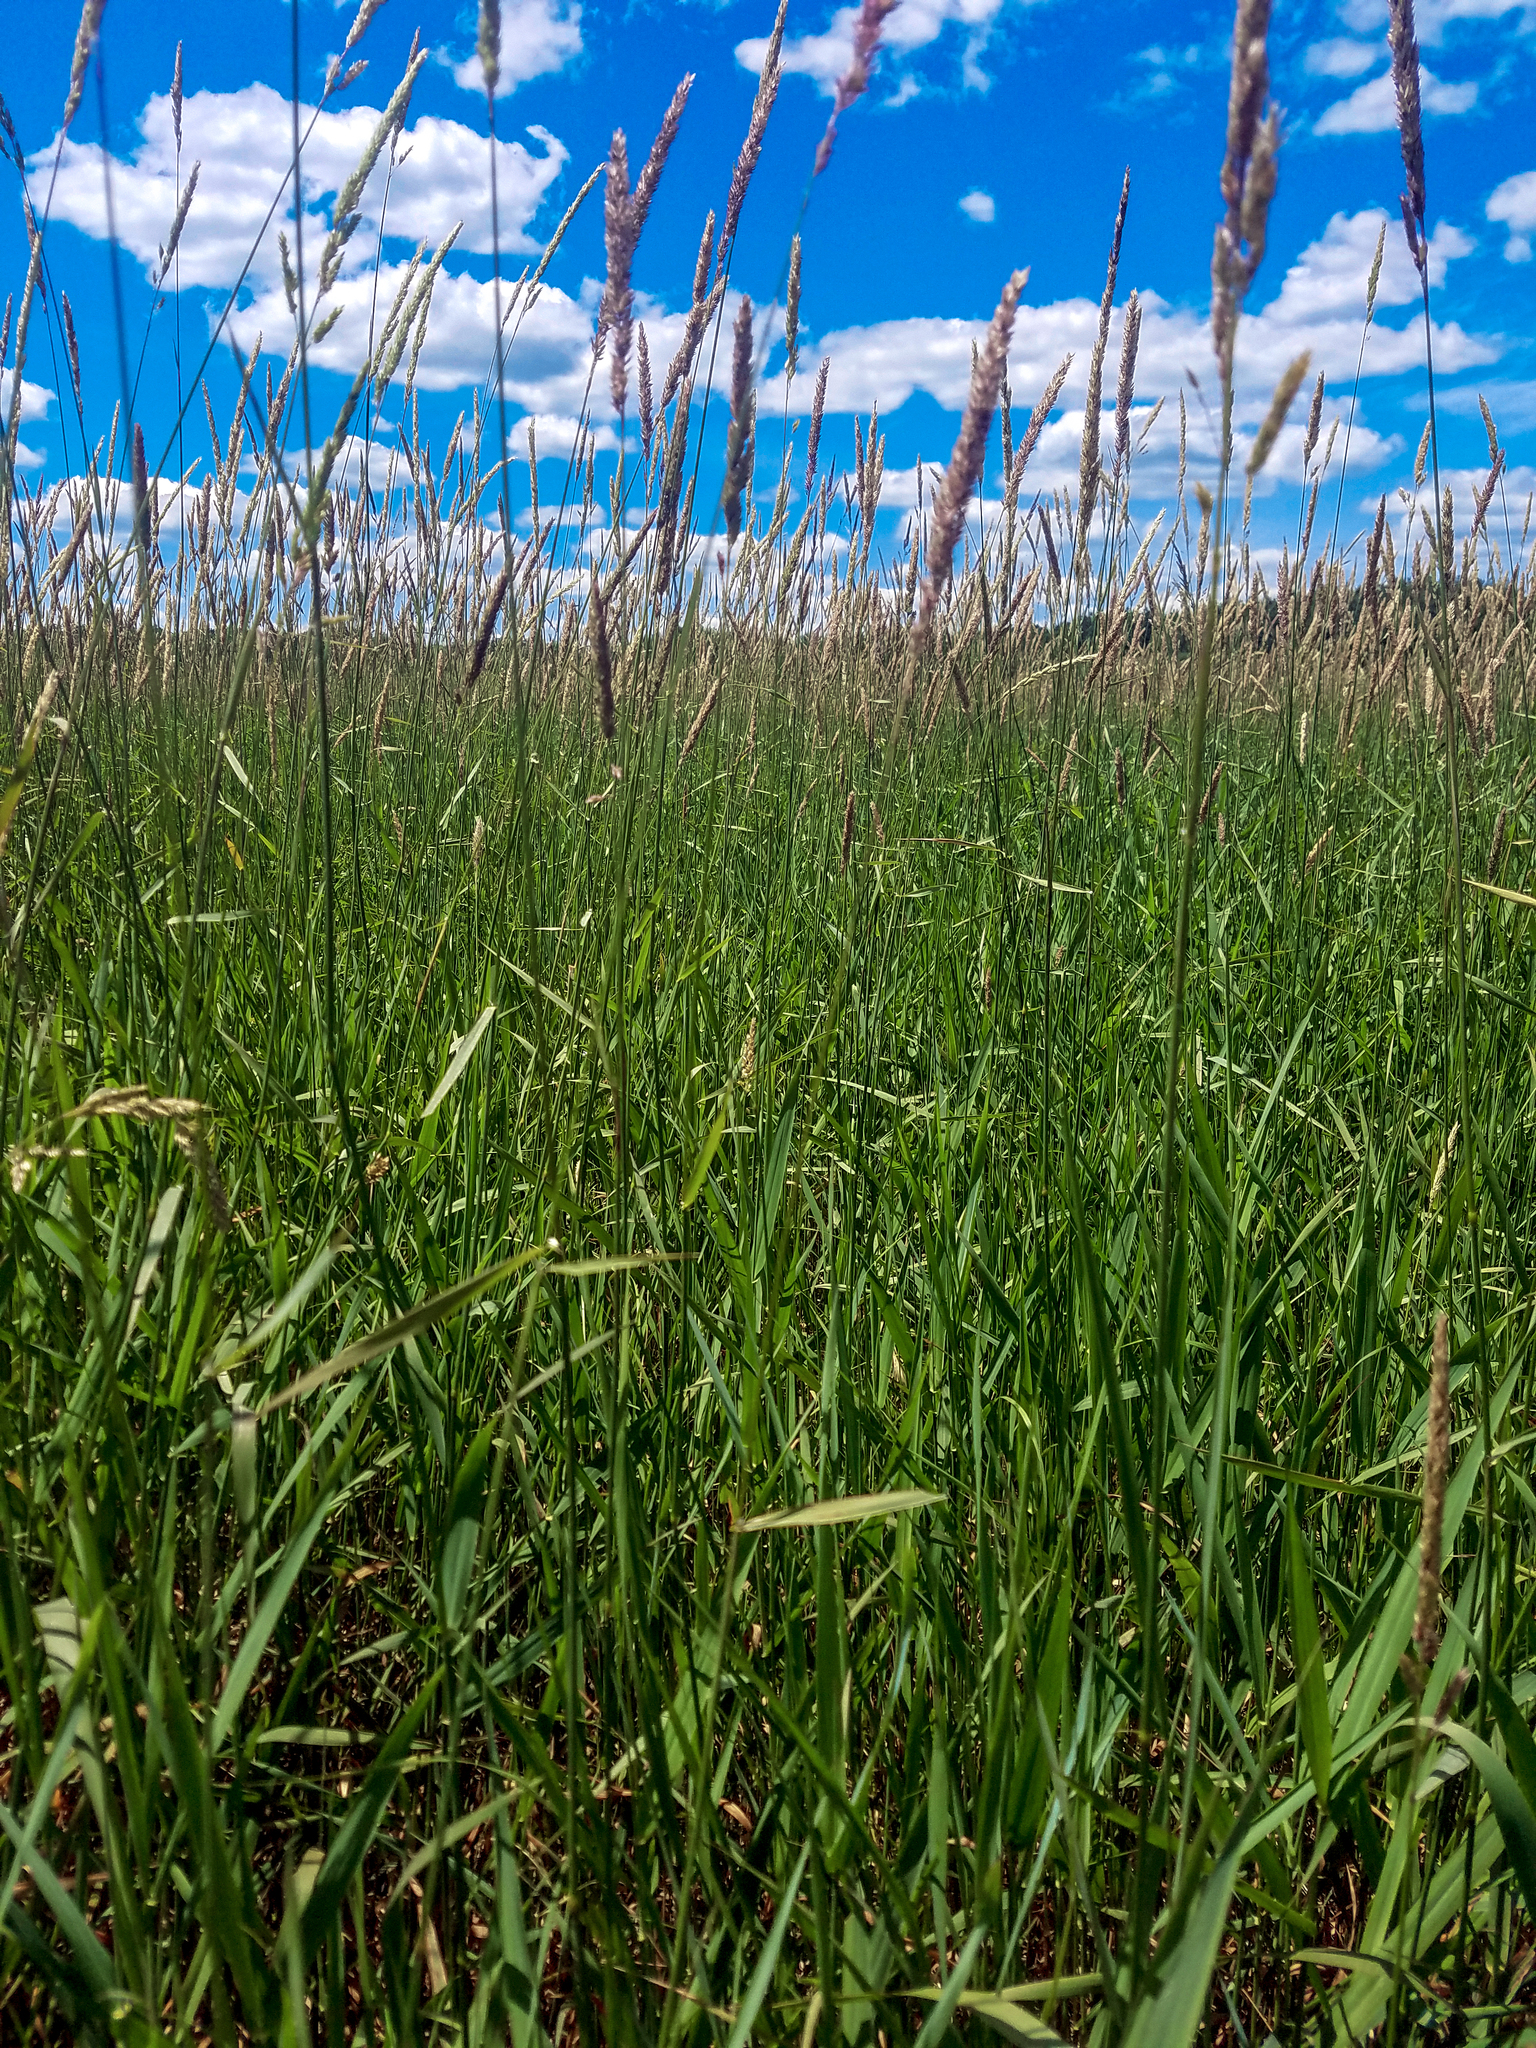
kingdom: Plantae
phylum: Tracheophyta
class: Liliopsida
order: Poales
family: Poaceae
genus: Phalaris
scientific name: Phalaris arundinacea
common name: Reed canary-grass
